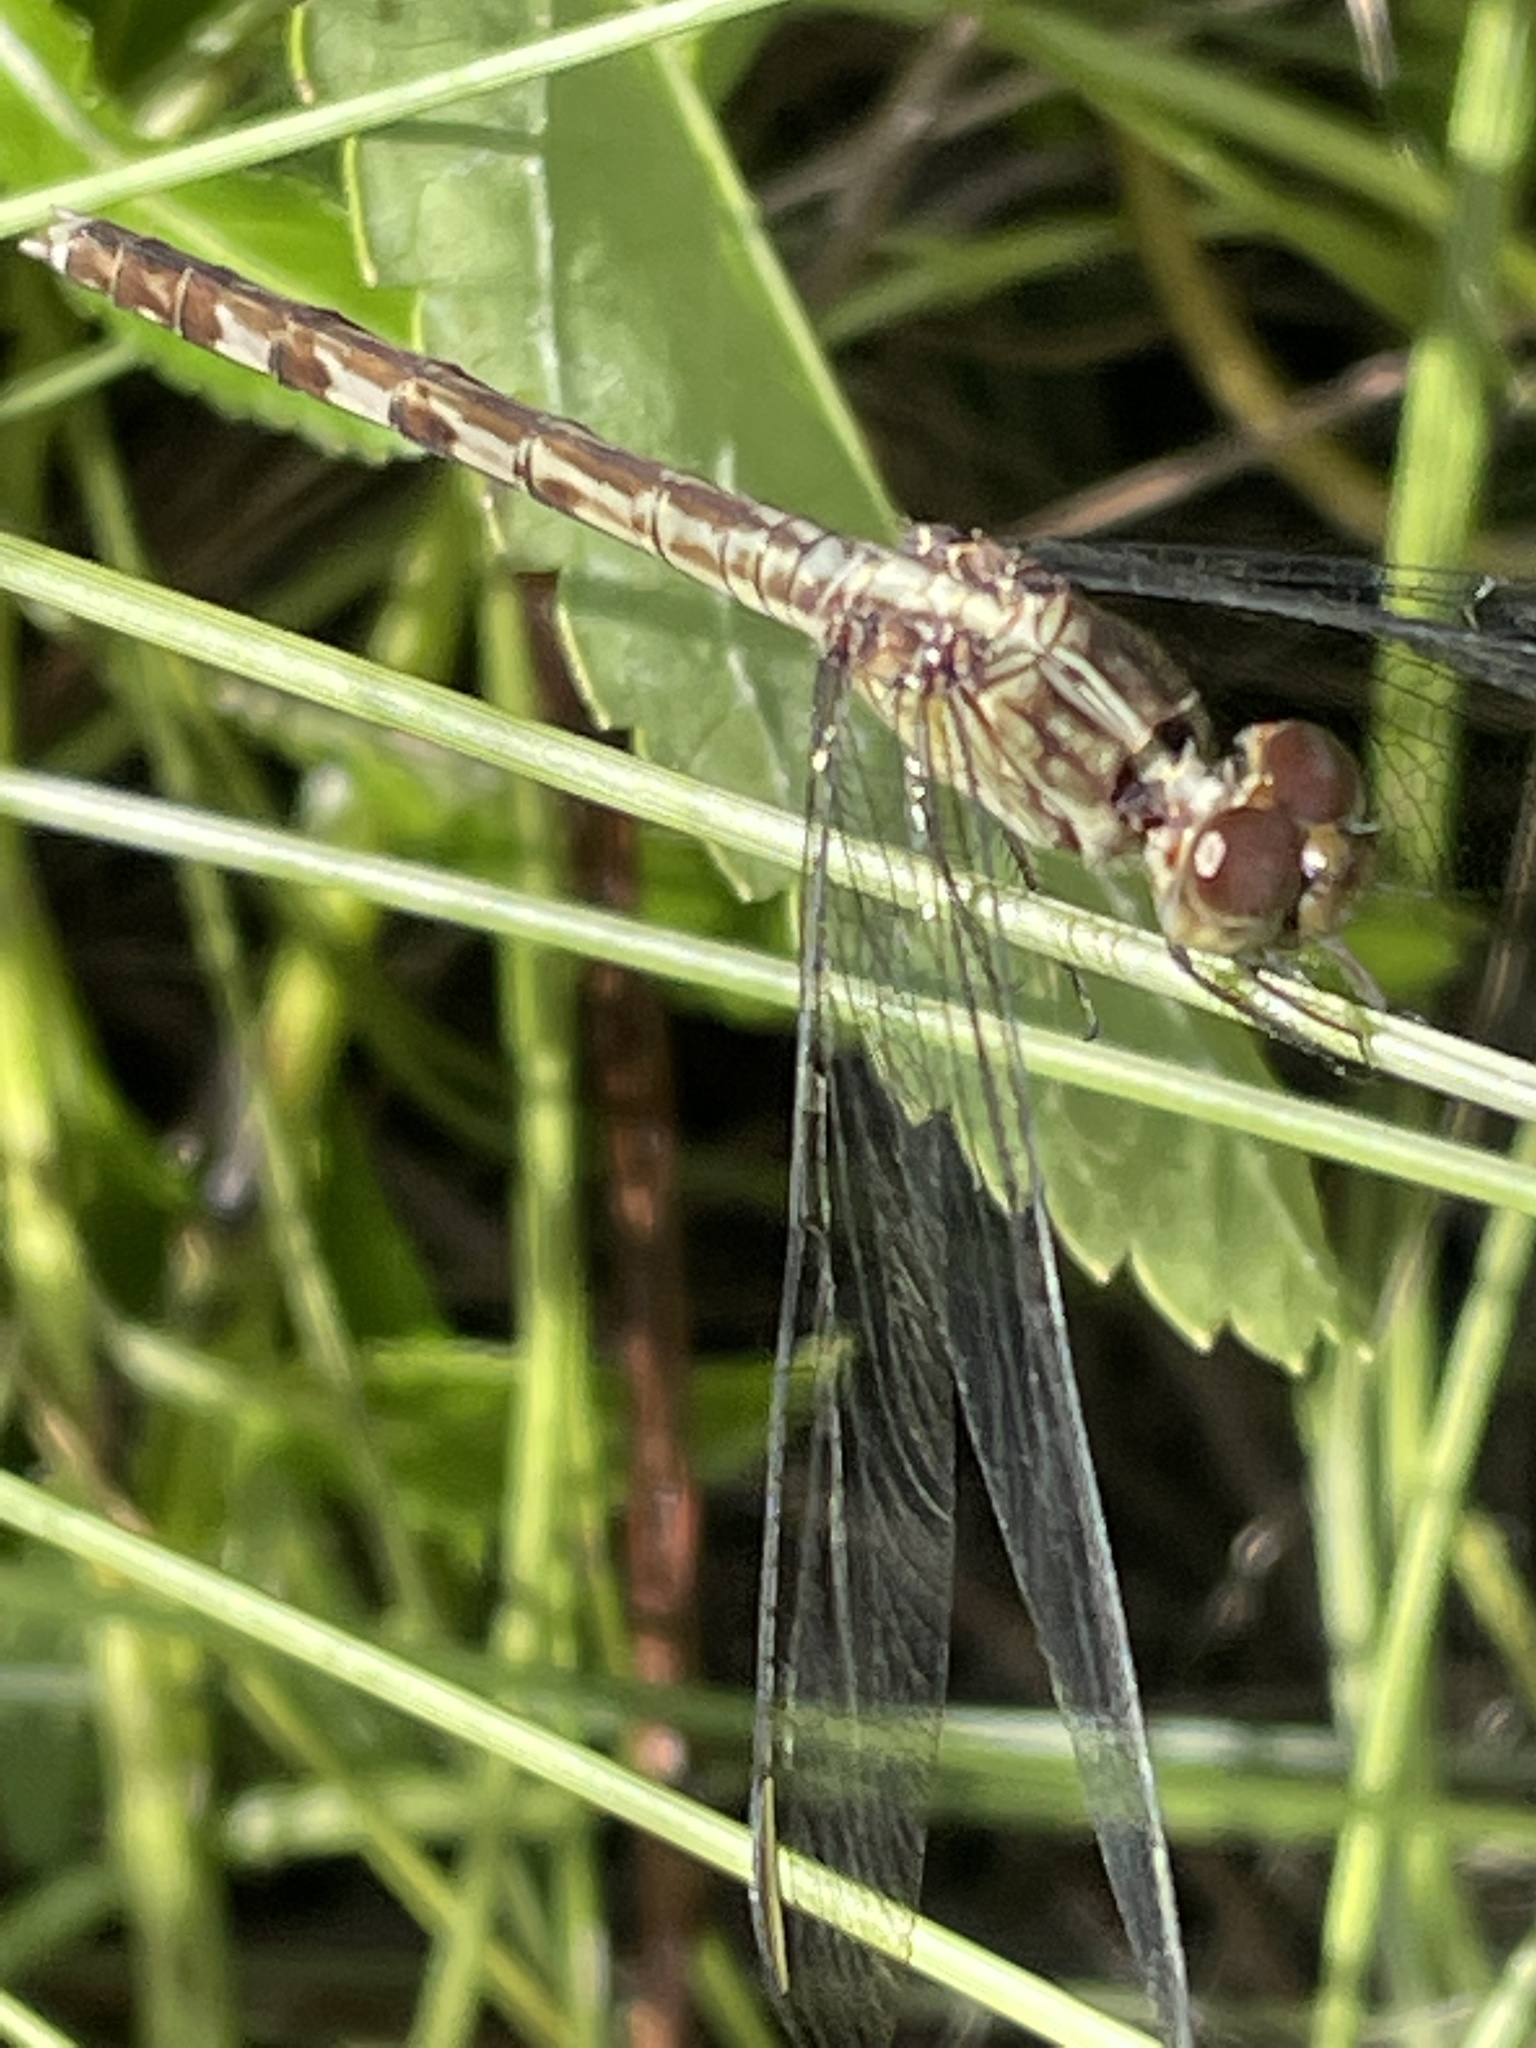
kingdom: Animalia
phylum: Arthropoda
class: Insecta
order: Odonata
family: Libellulidae
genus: Erythrodiplax
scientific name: Erythrodiplax umbrata
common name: Band-winged dragonlet
